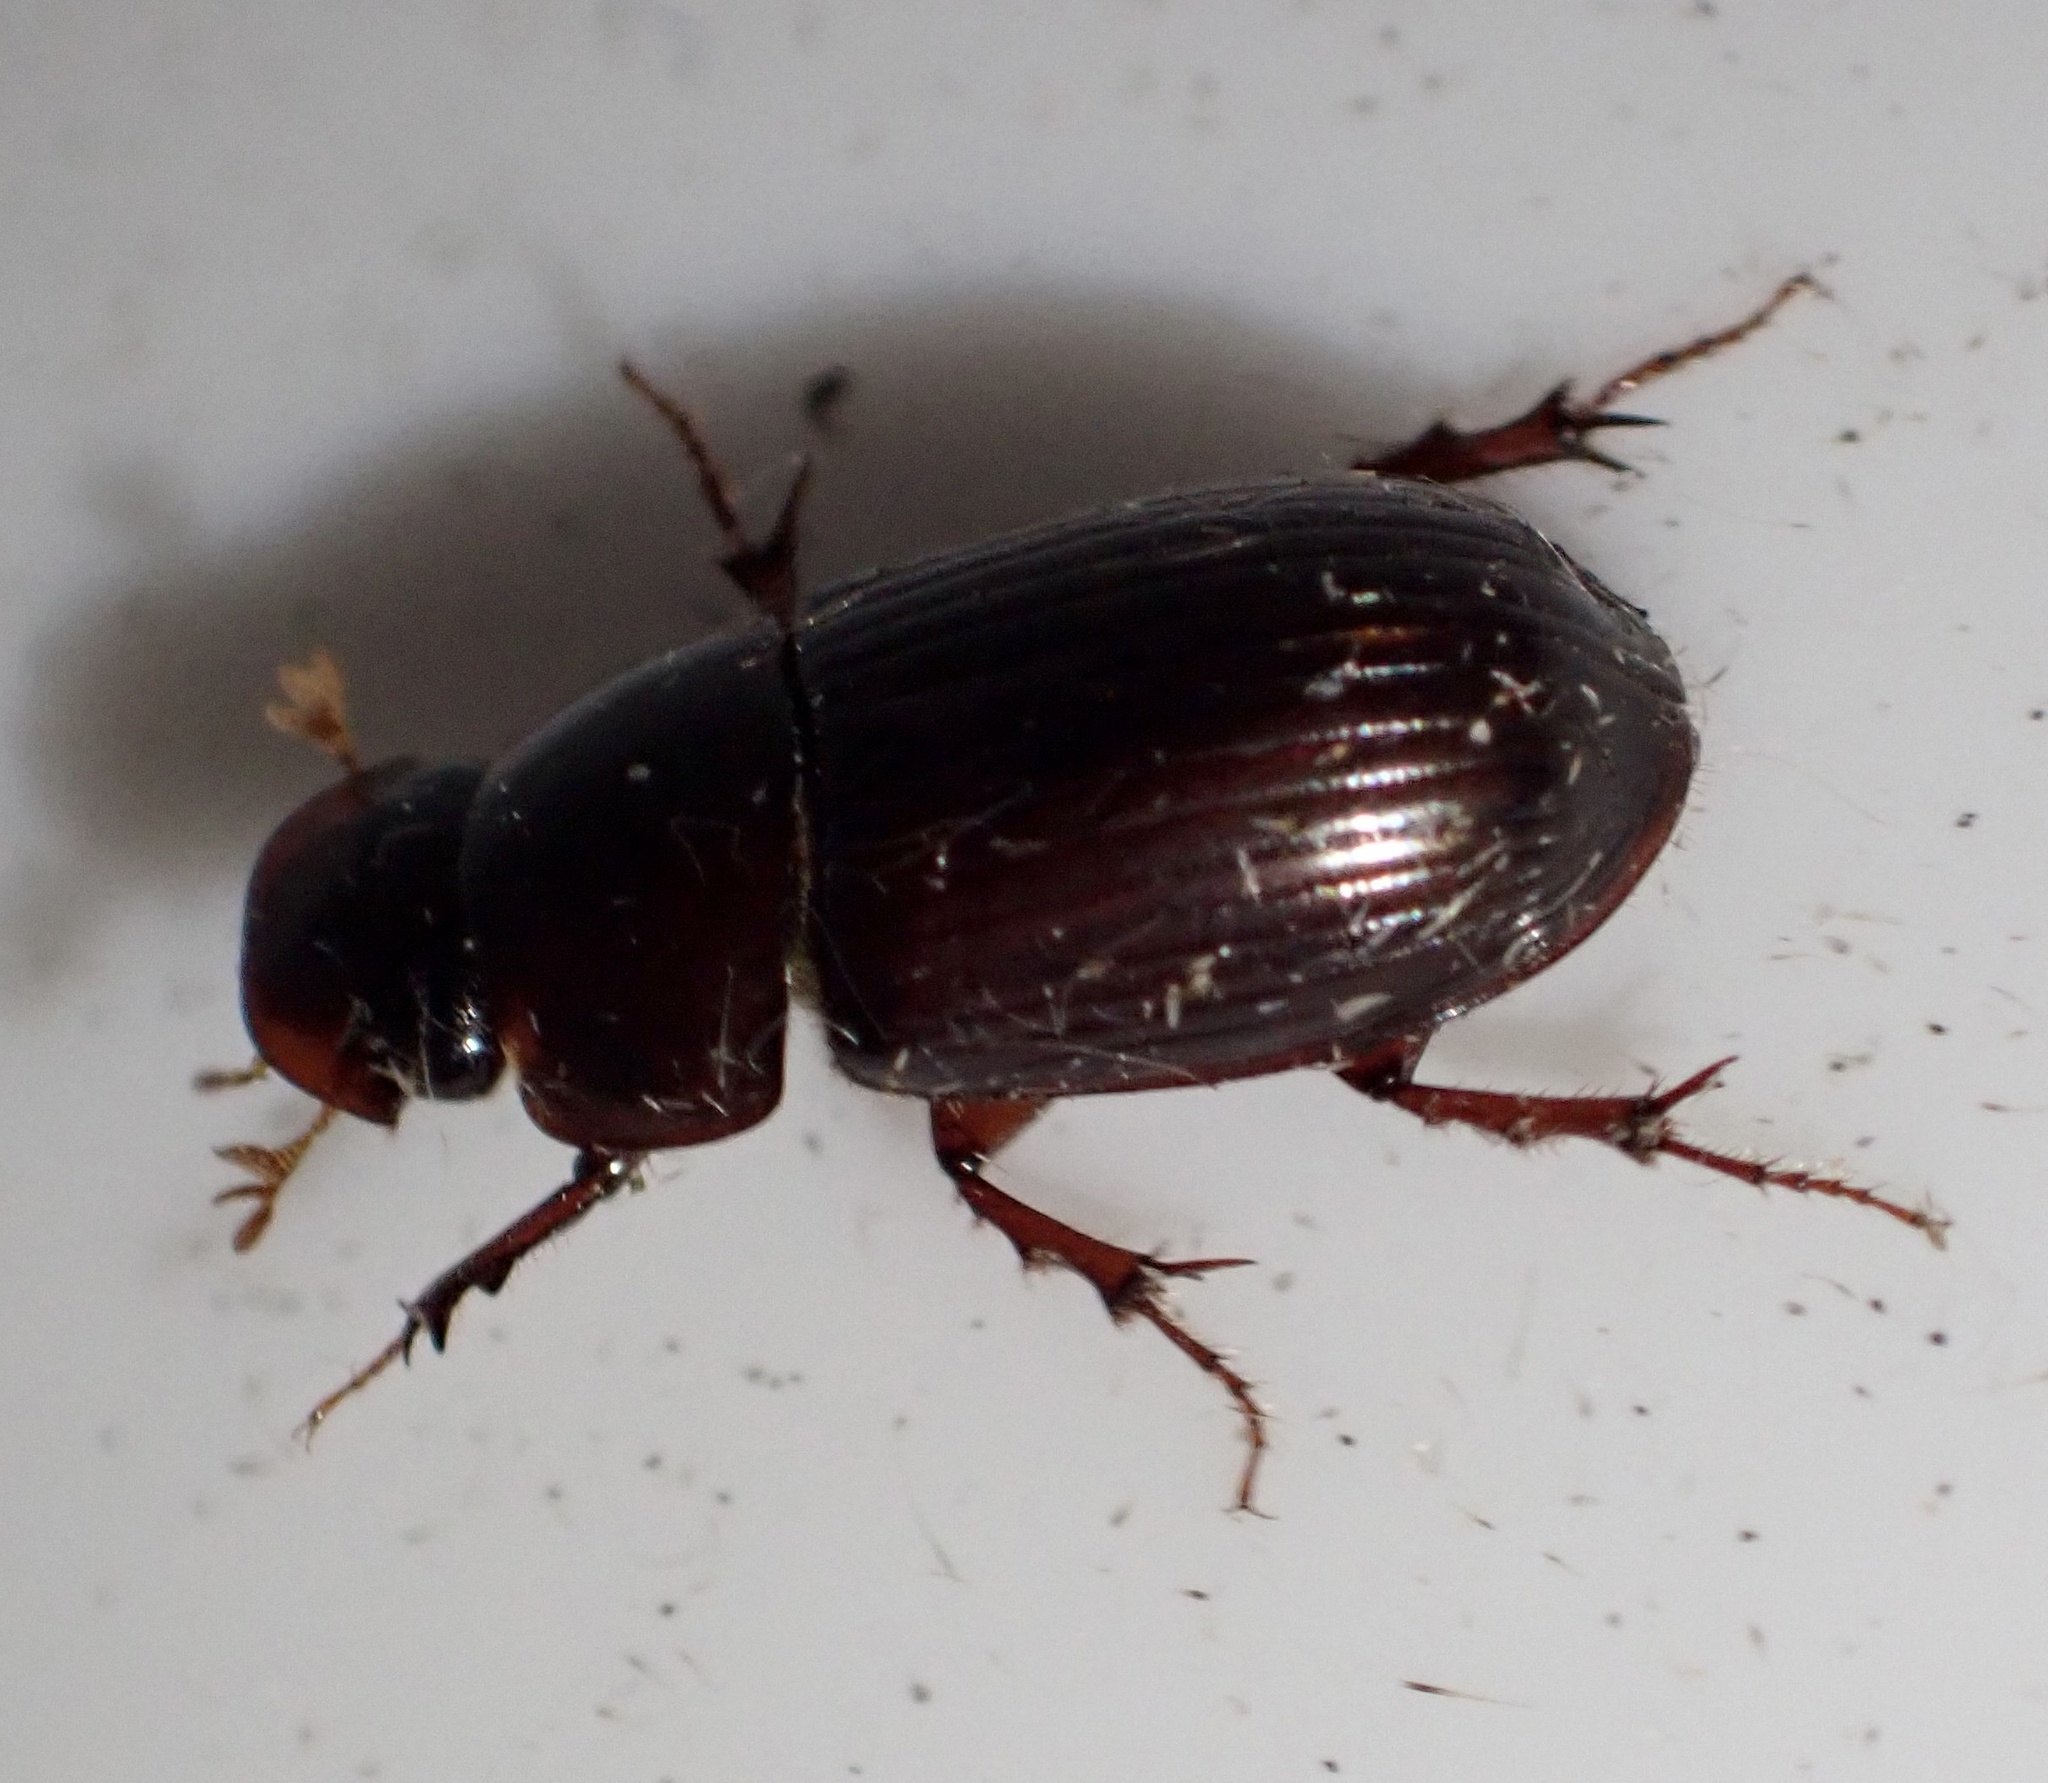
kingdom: Animalia
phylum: Arthropoda
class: Insecta
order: Coleoptera
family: Scarabaeidae
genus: Acrossus
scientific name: Acrossus rufipes
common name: Night-flying dung beetle
